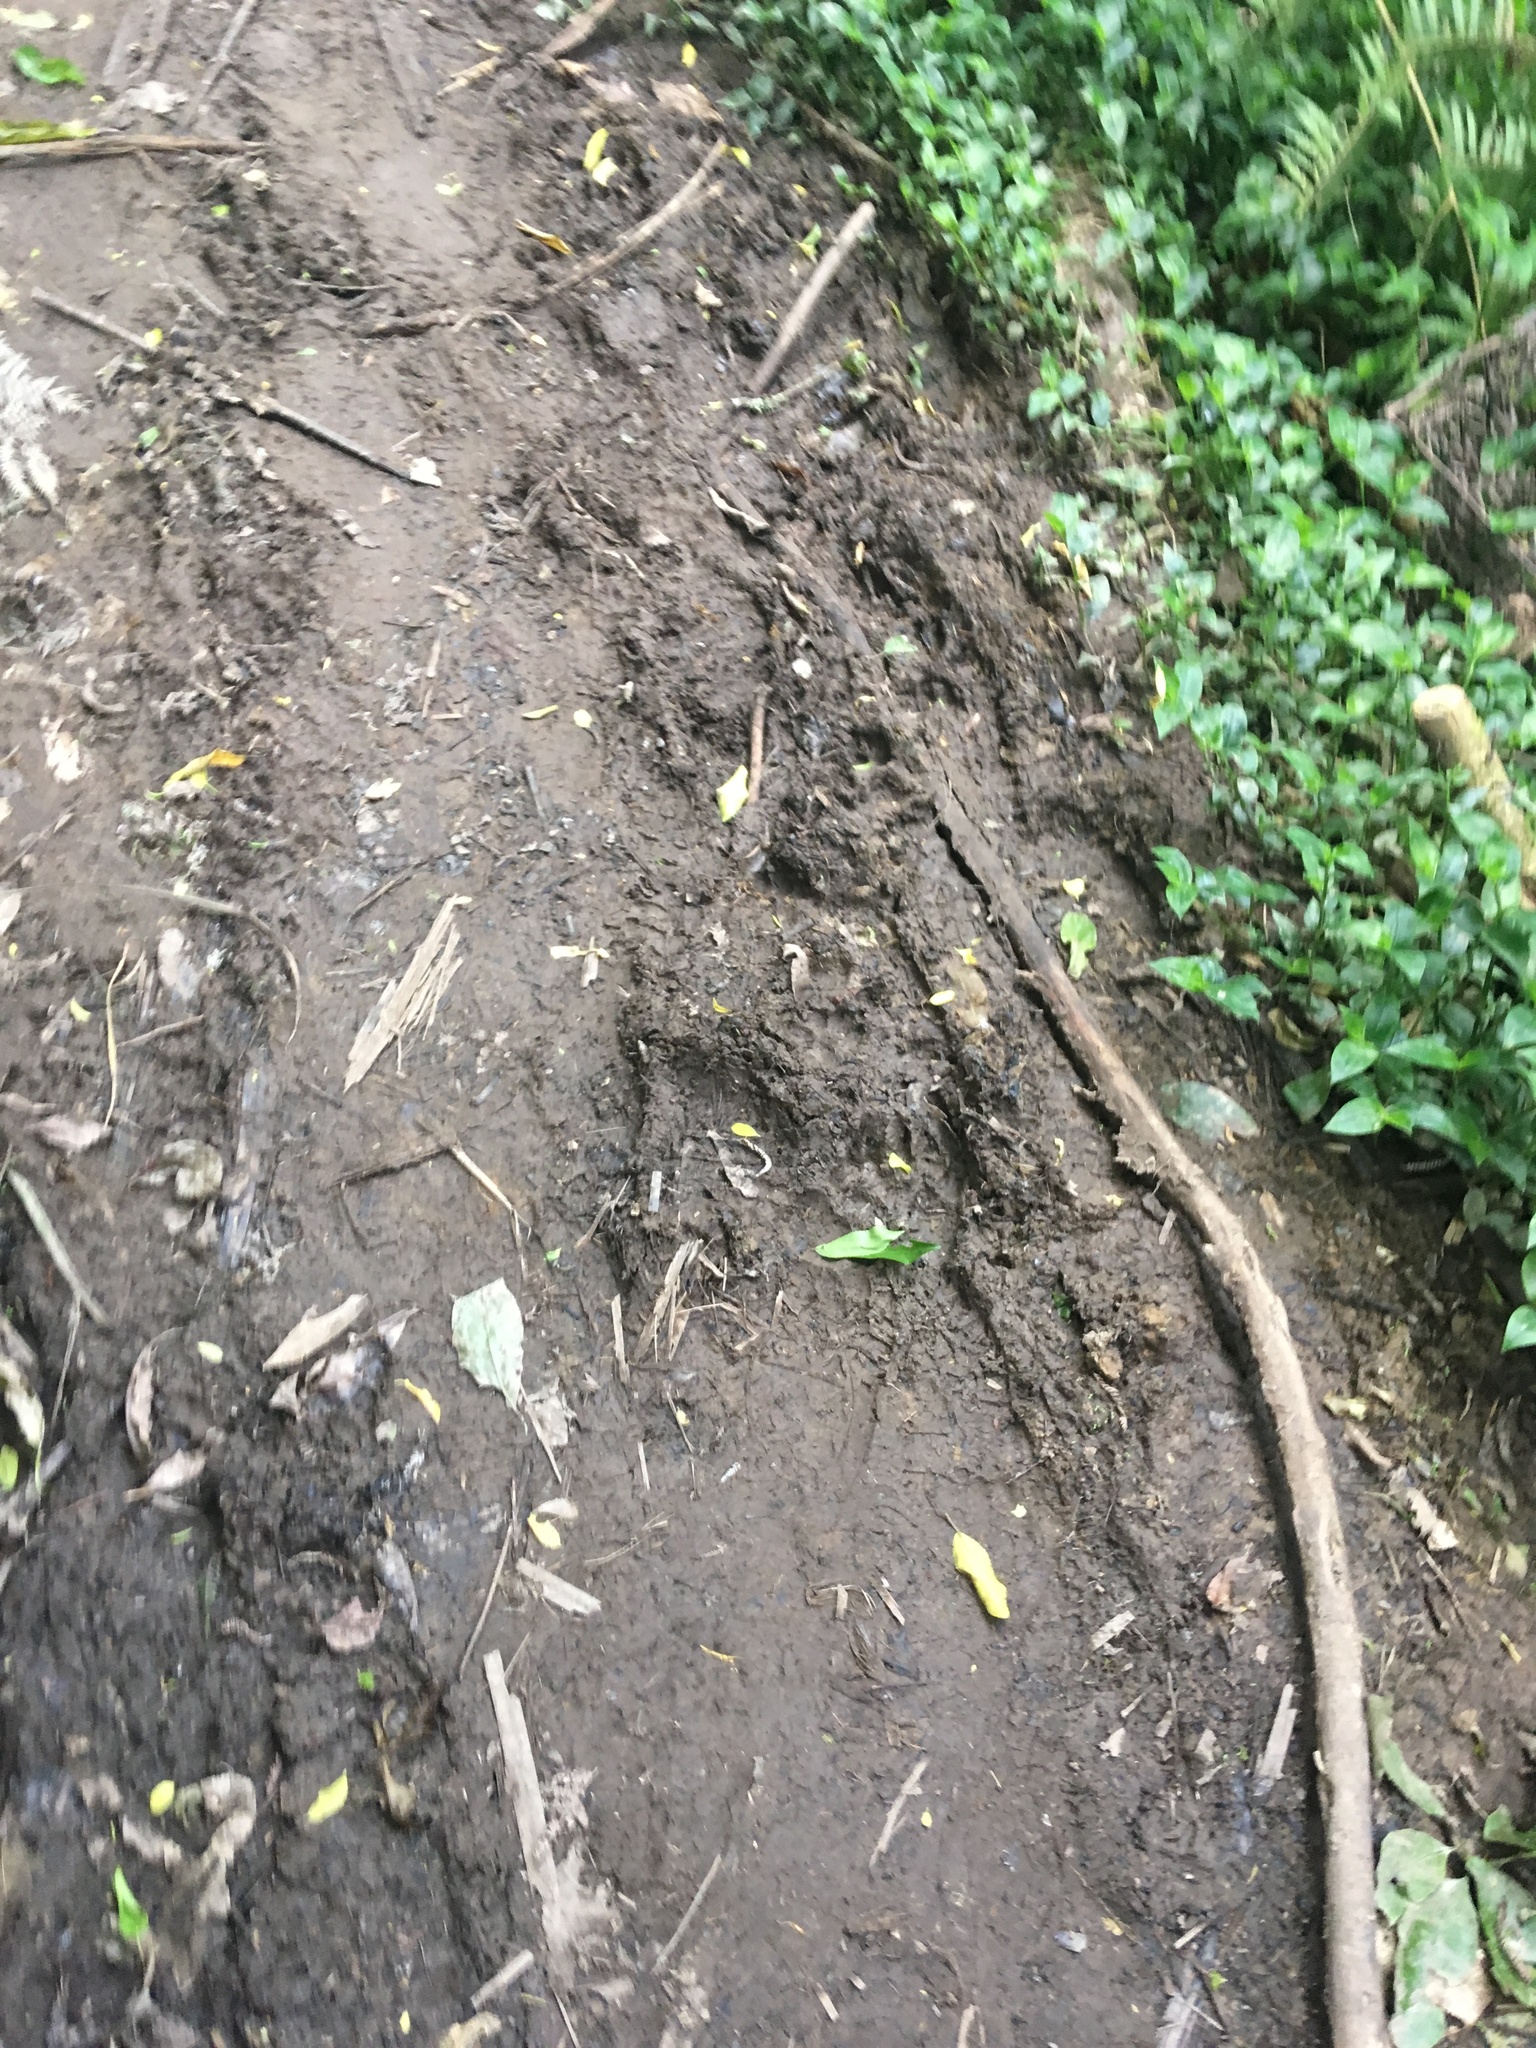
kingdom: Plantae
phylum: Tracheophyta
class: Liliopsida
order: Commelinales
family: Commelinaceae
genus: Tradescantia
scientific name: Tradescantia fluminensis
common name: Wandering-jew
